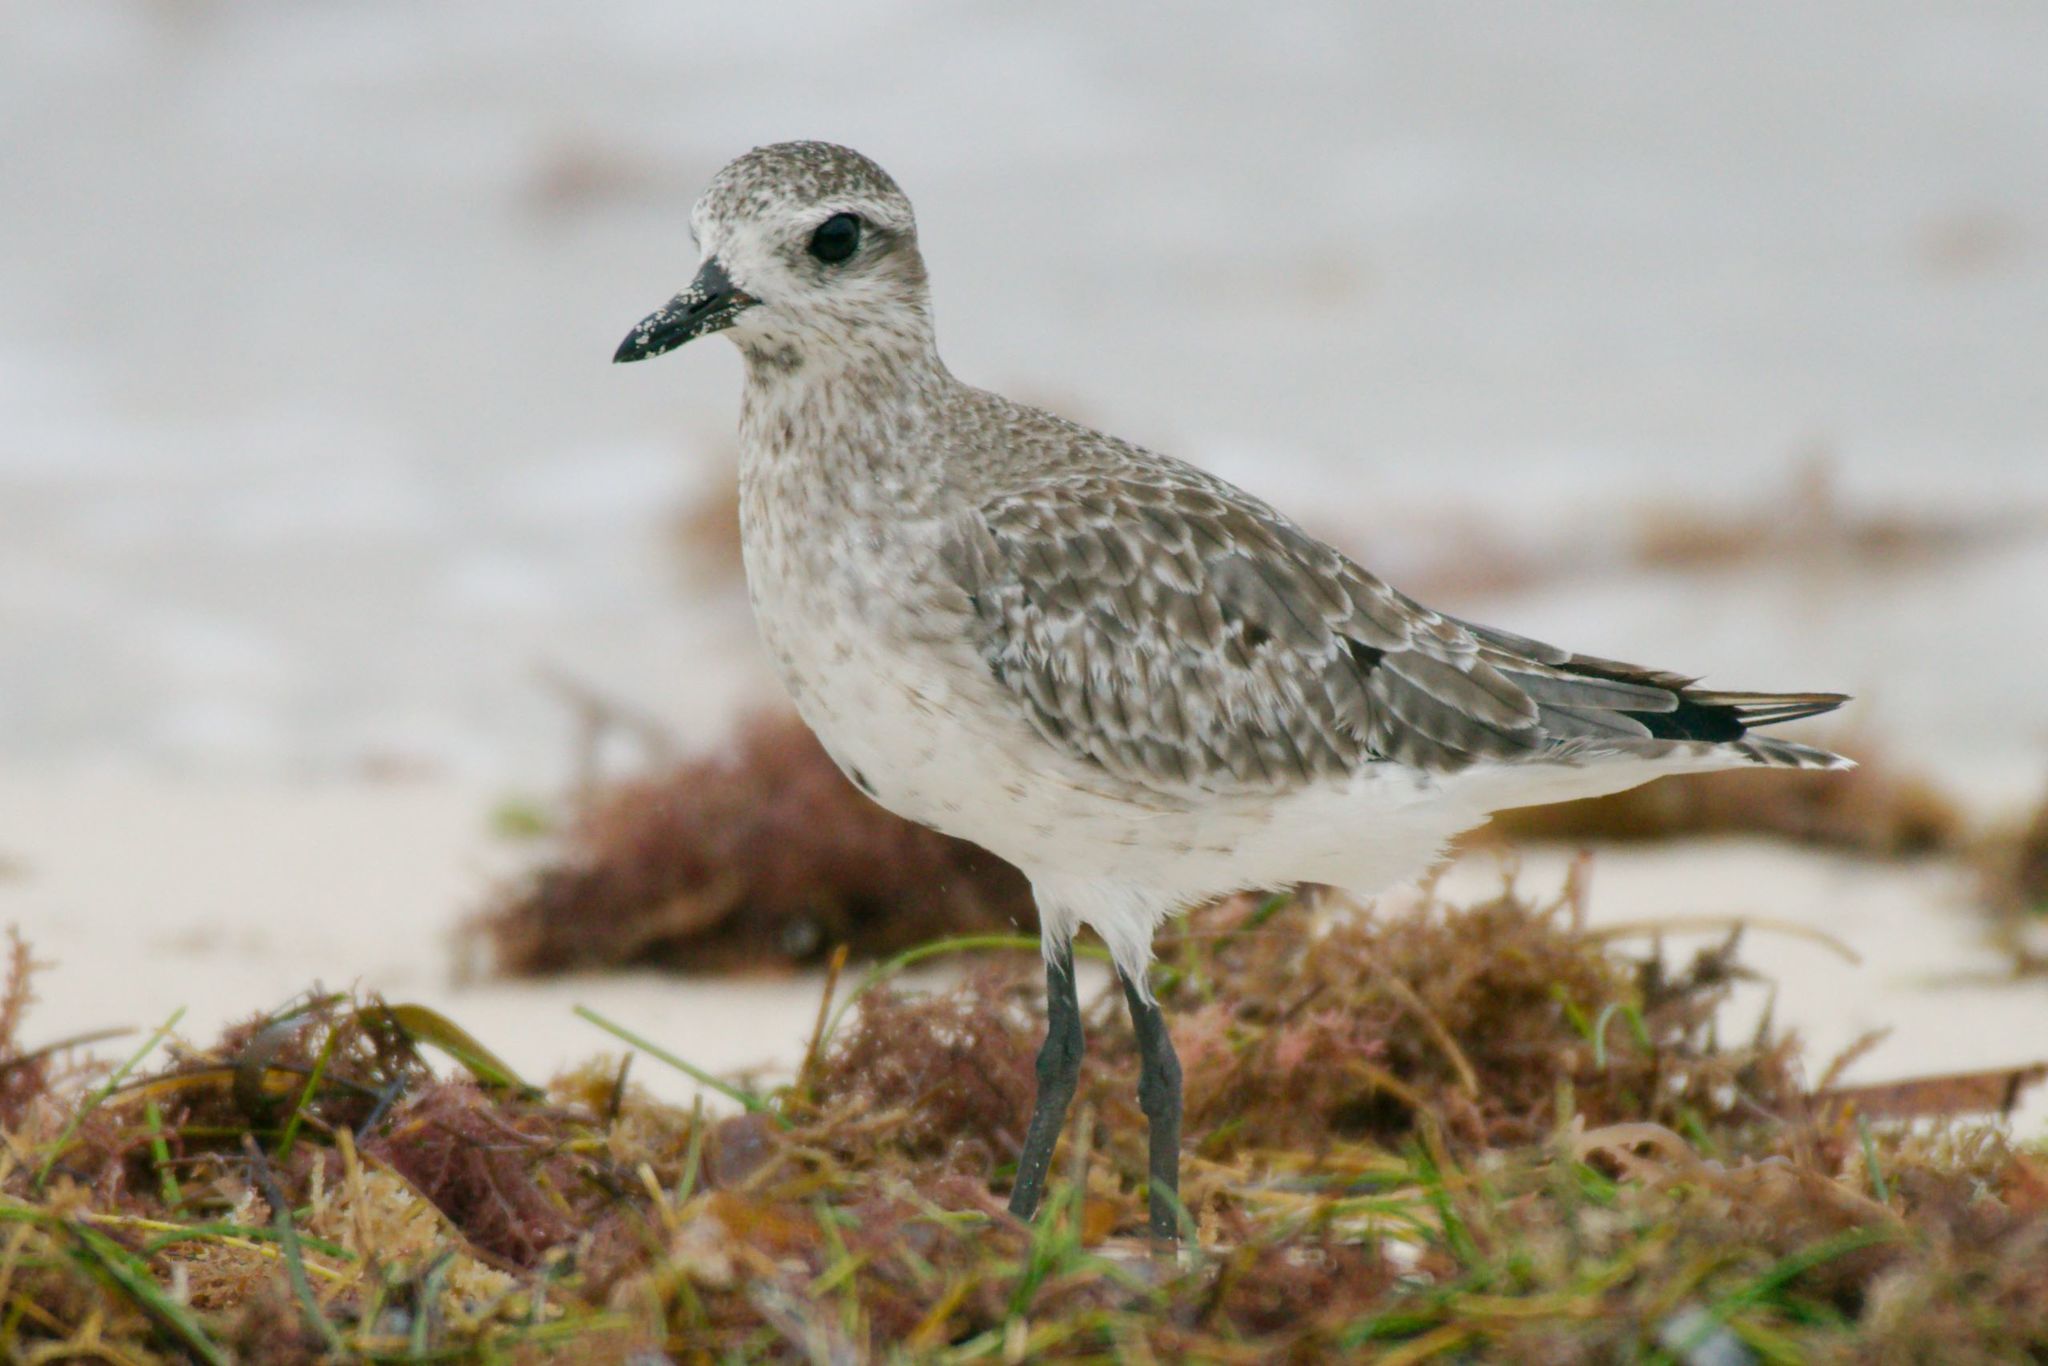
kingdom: Animalia
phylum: Chordata
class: Aves
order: Charadriiformes
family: Charadriidae
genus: Pluvialis
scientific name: Pluvialis squatarola
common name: Grey plover
